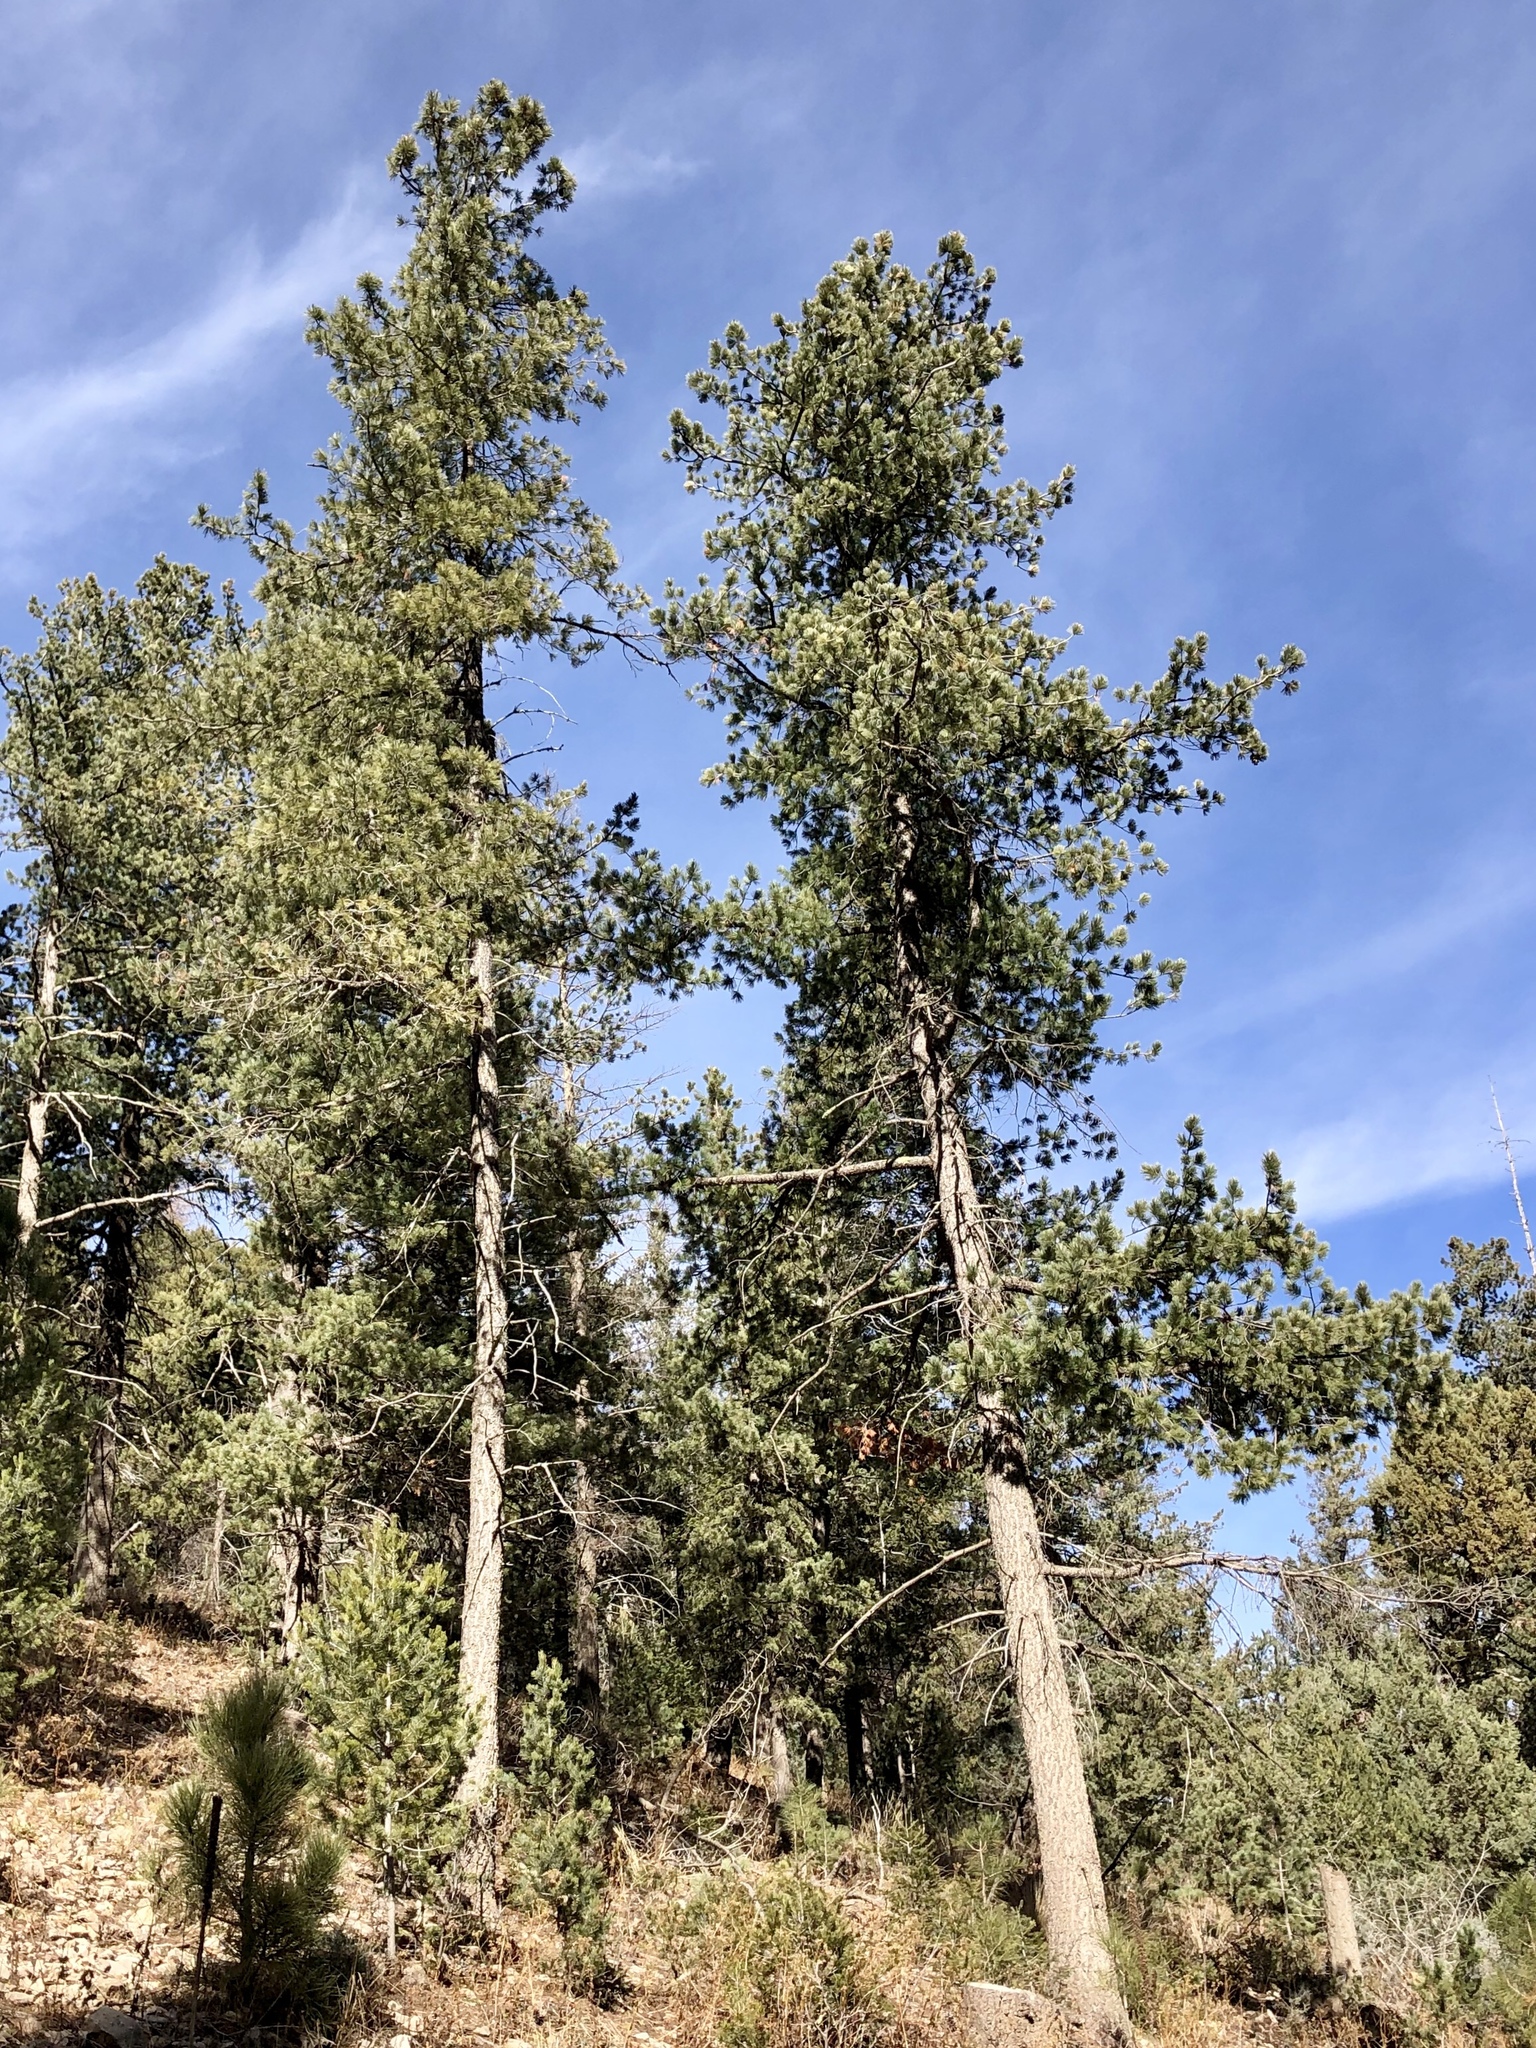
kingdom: Plantae
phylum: Tracheophyta
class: Pinopsida
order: Pinales
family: Pinaceae
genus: Pinus
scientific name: Pinus strobiformis
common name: Southwestern white pine
